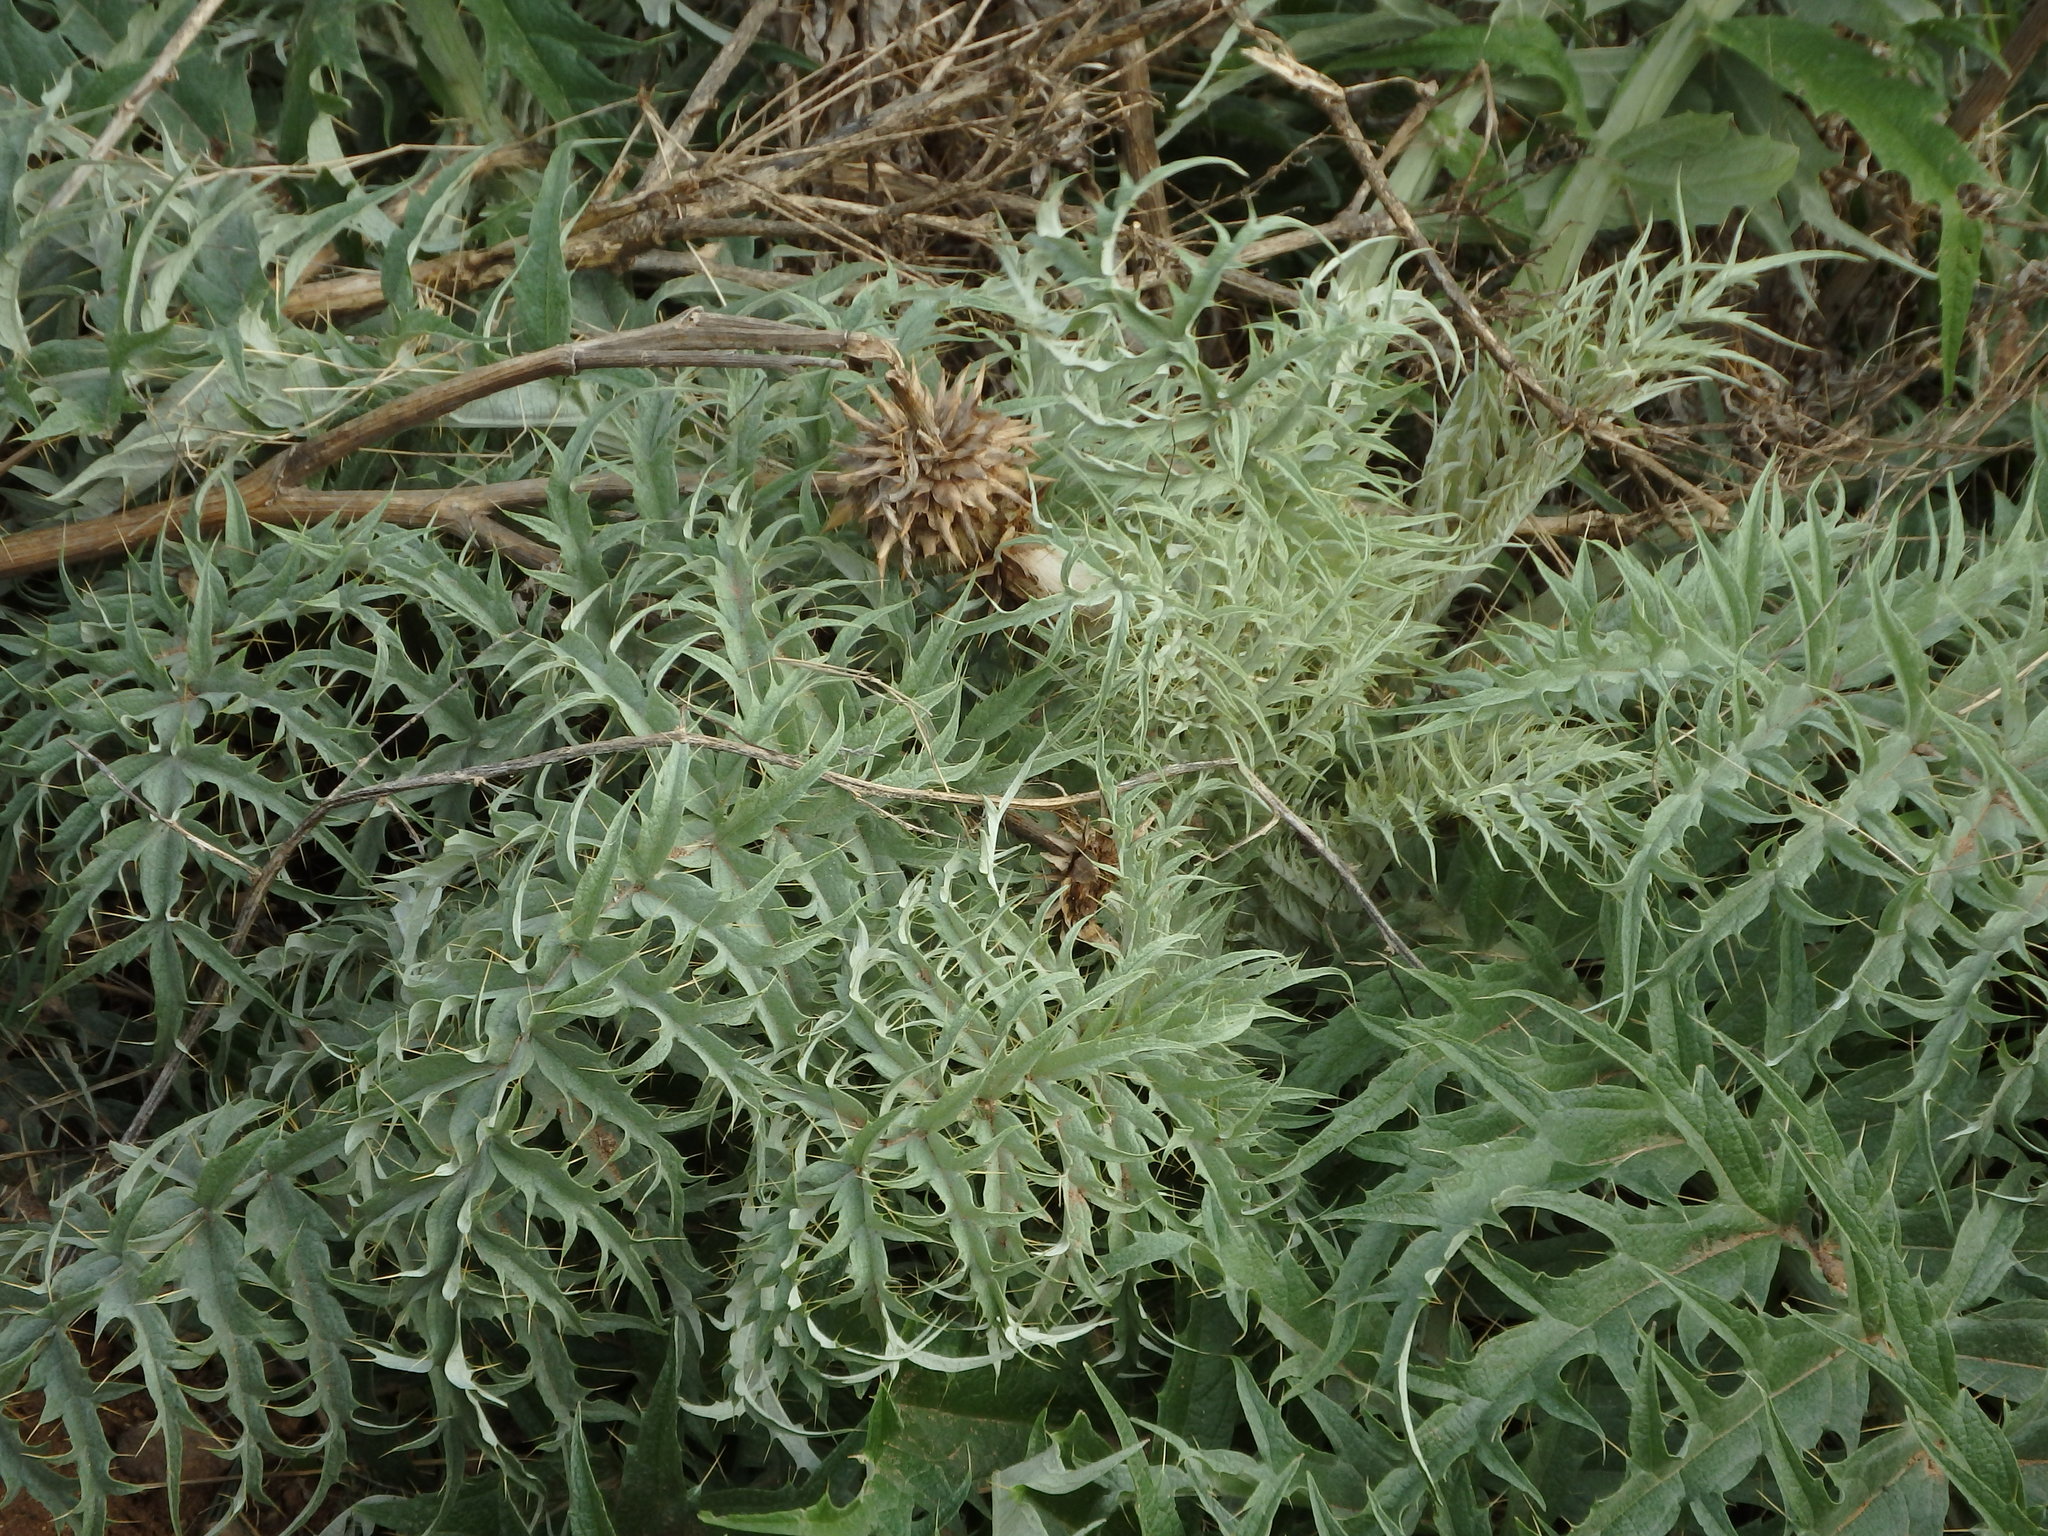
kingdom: Plantae
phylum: Tracheophyta
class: Magnoliopsida
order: Asterales
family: Asteraceae
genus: Cynara
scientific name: Cynara cardunculus
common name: Globe artichoke
